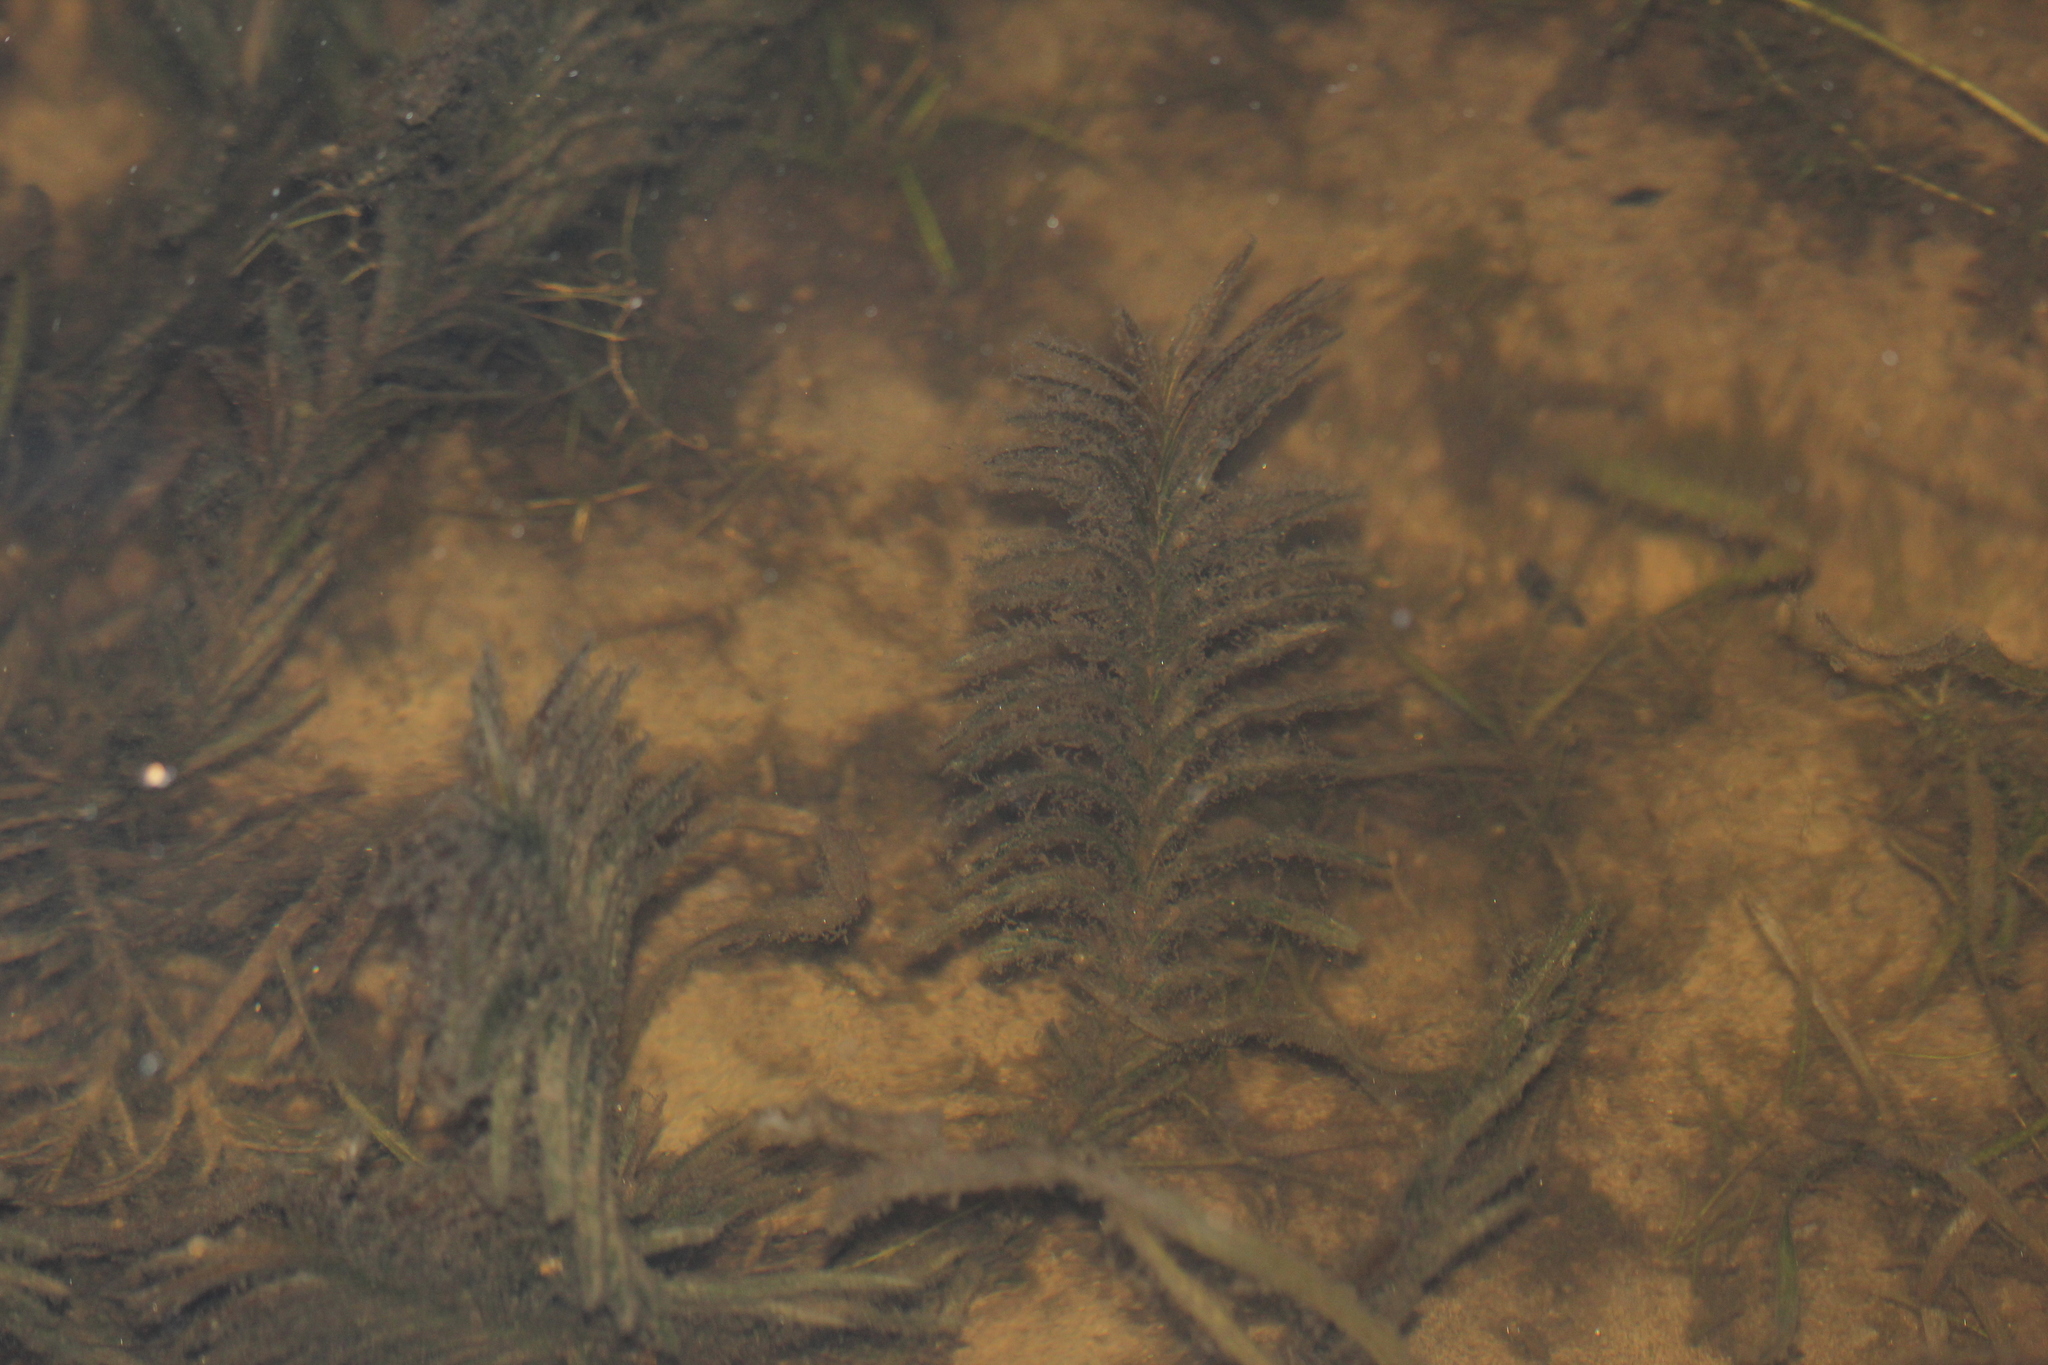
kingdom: Plantae
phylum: Tracheophyta
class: Liliopsida
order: Alismatales
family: Potamogetonaceae
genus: Potamogeton
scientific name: Potamogeton robbinsii
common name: Fern pondweed
